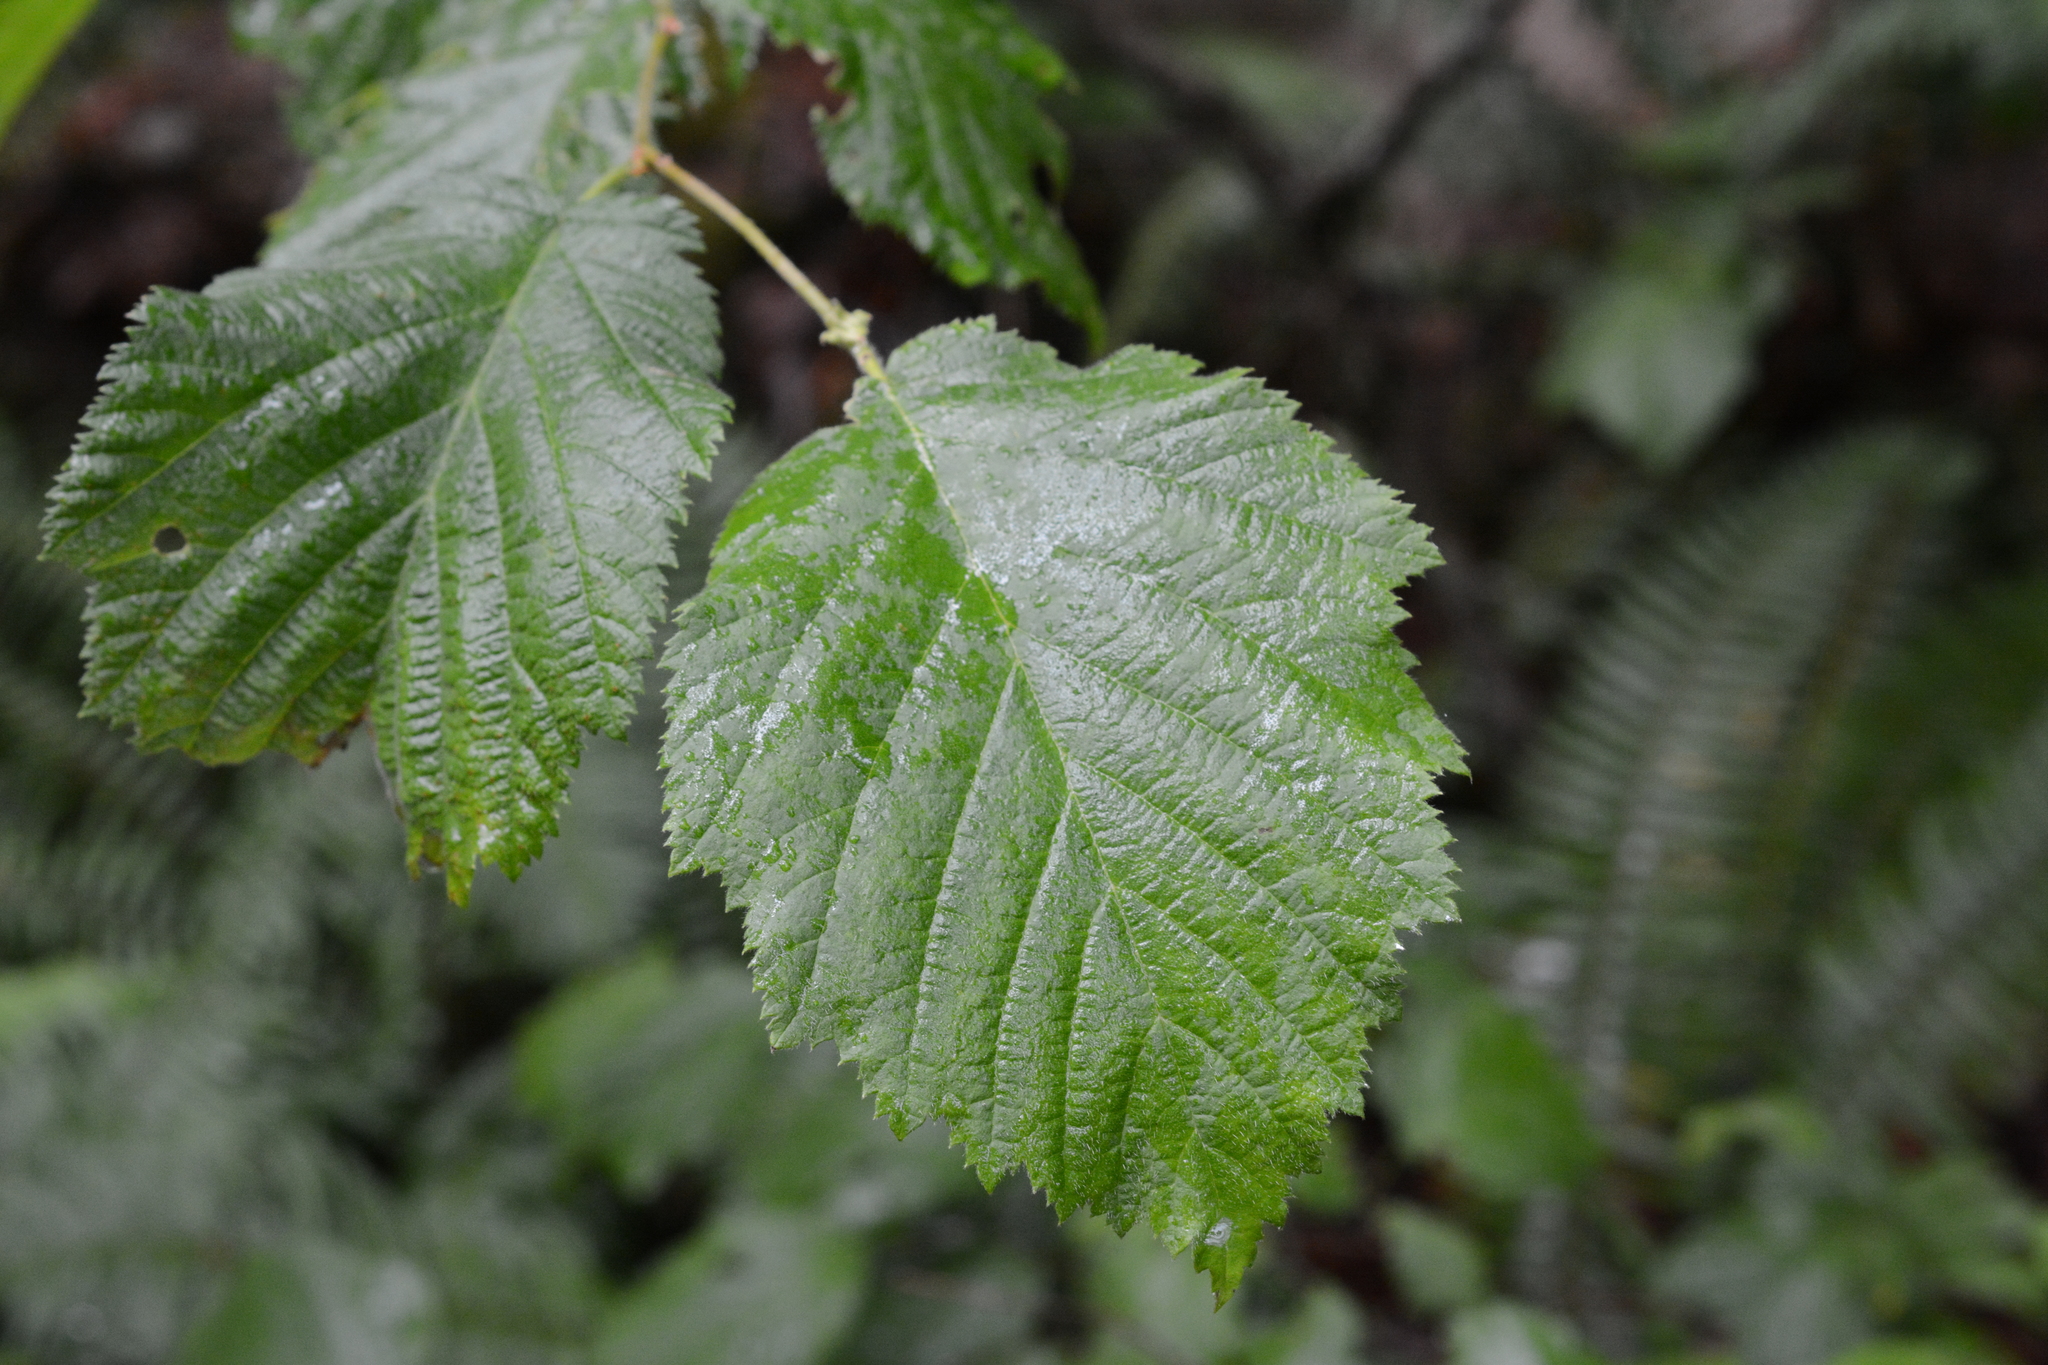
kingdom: Plantae
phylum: Tracheophyta
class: Magnoliopsida
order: Fagales
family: Betulaceae
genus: Corylus
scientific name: Corylus cornuta
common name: Beaked hazel
